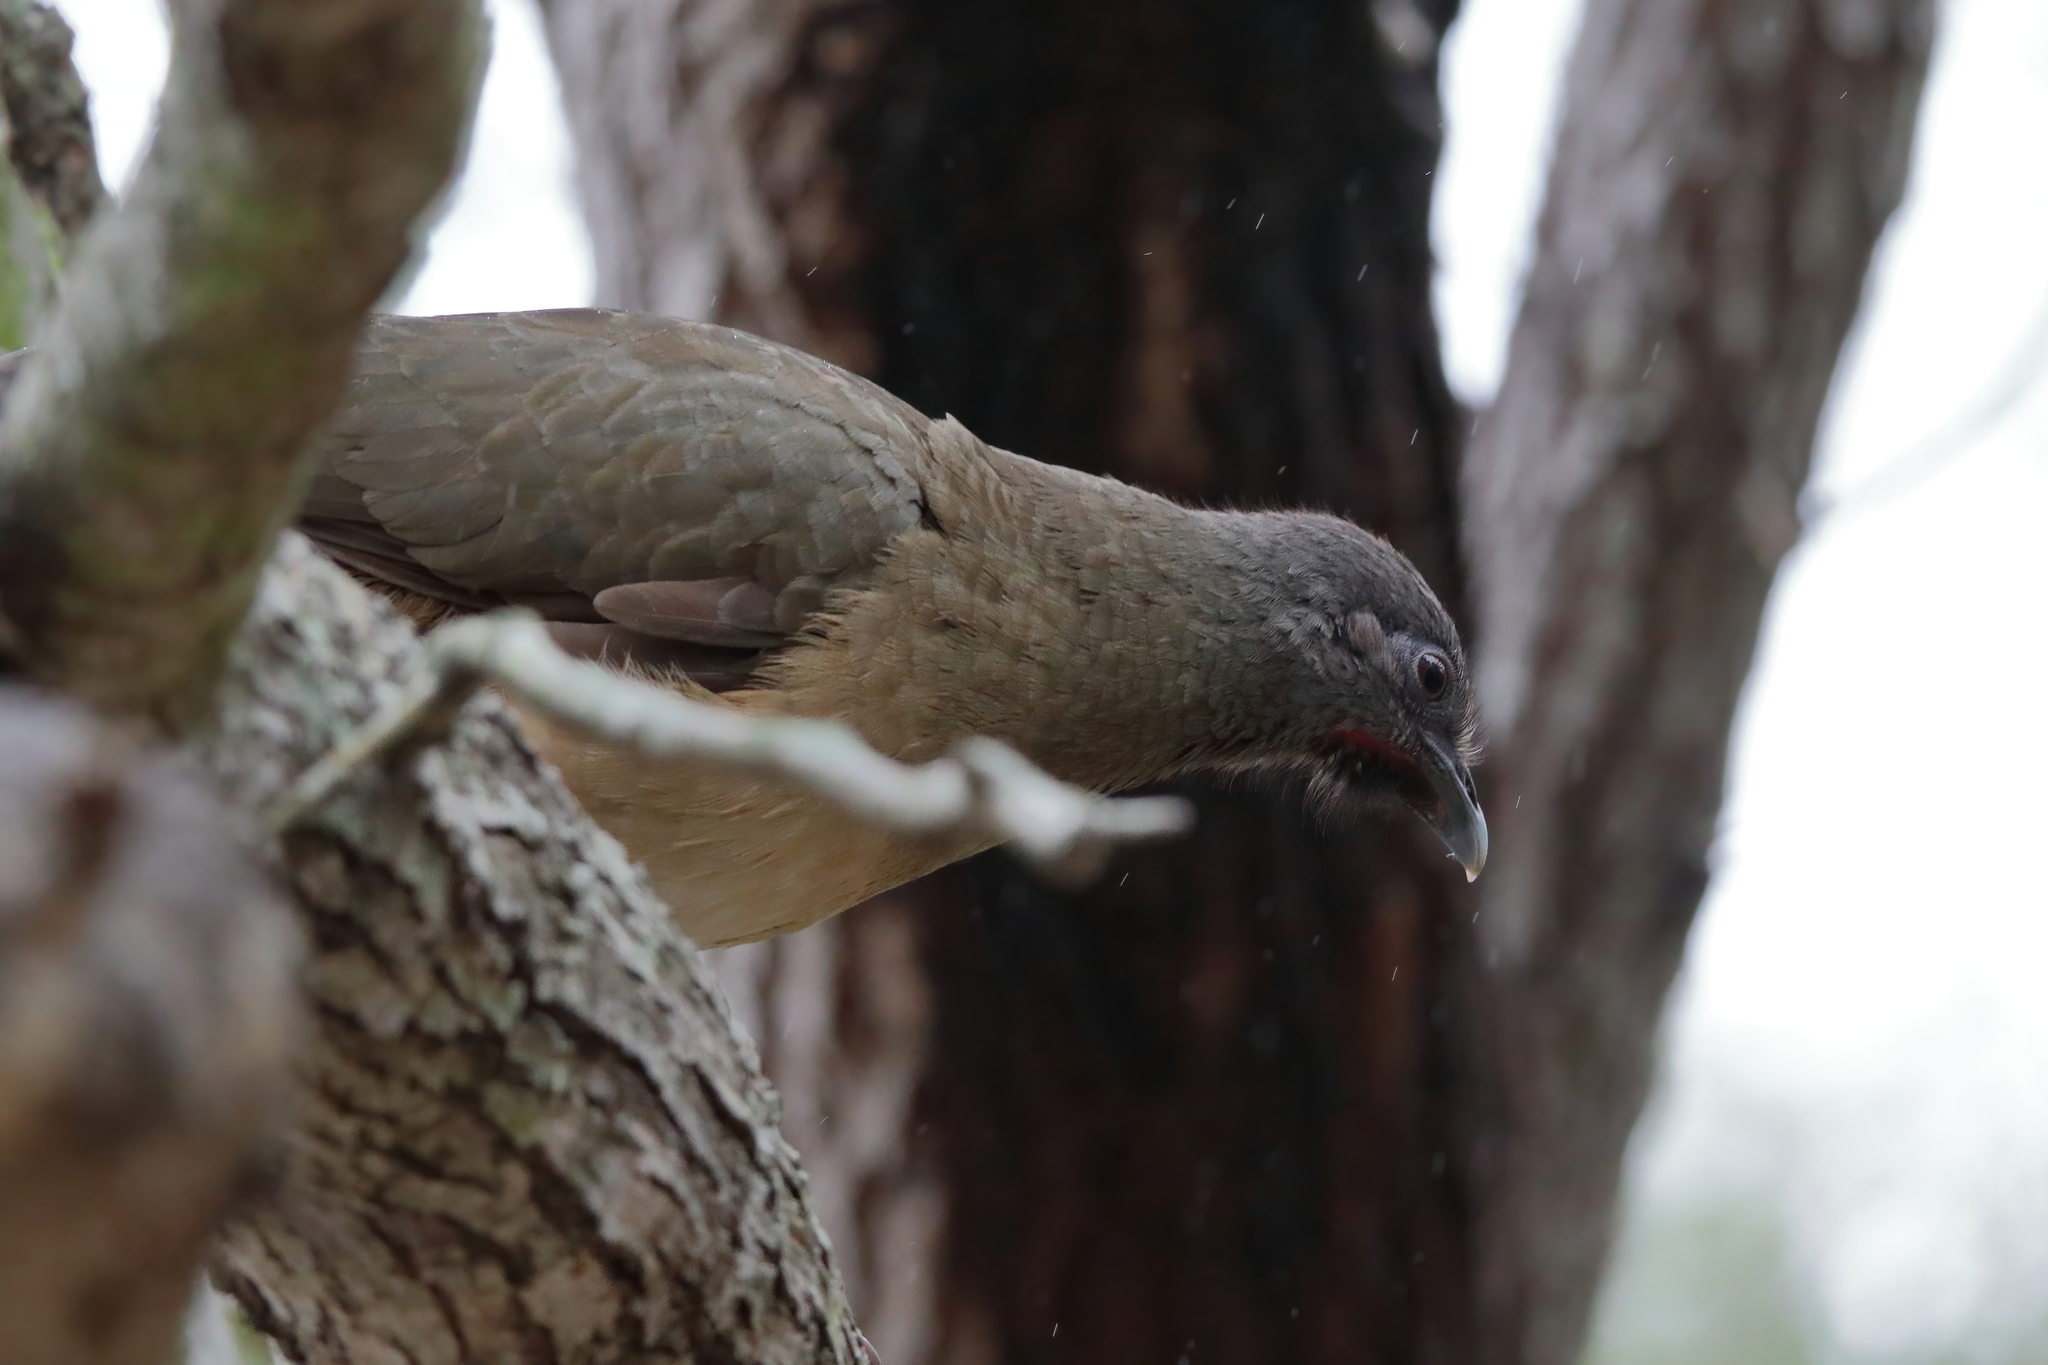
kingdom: Animalia
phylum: Chordata
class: Aves
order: Galliformes
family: Cracidae
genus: Ortalis
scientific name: Ortalis vetula
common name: Plain chachalaca
